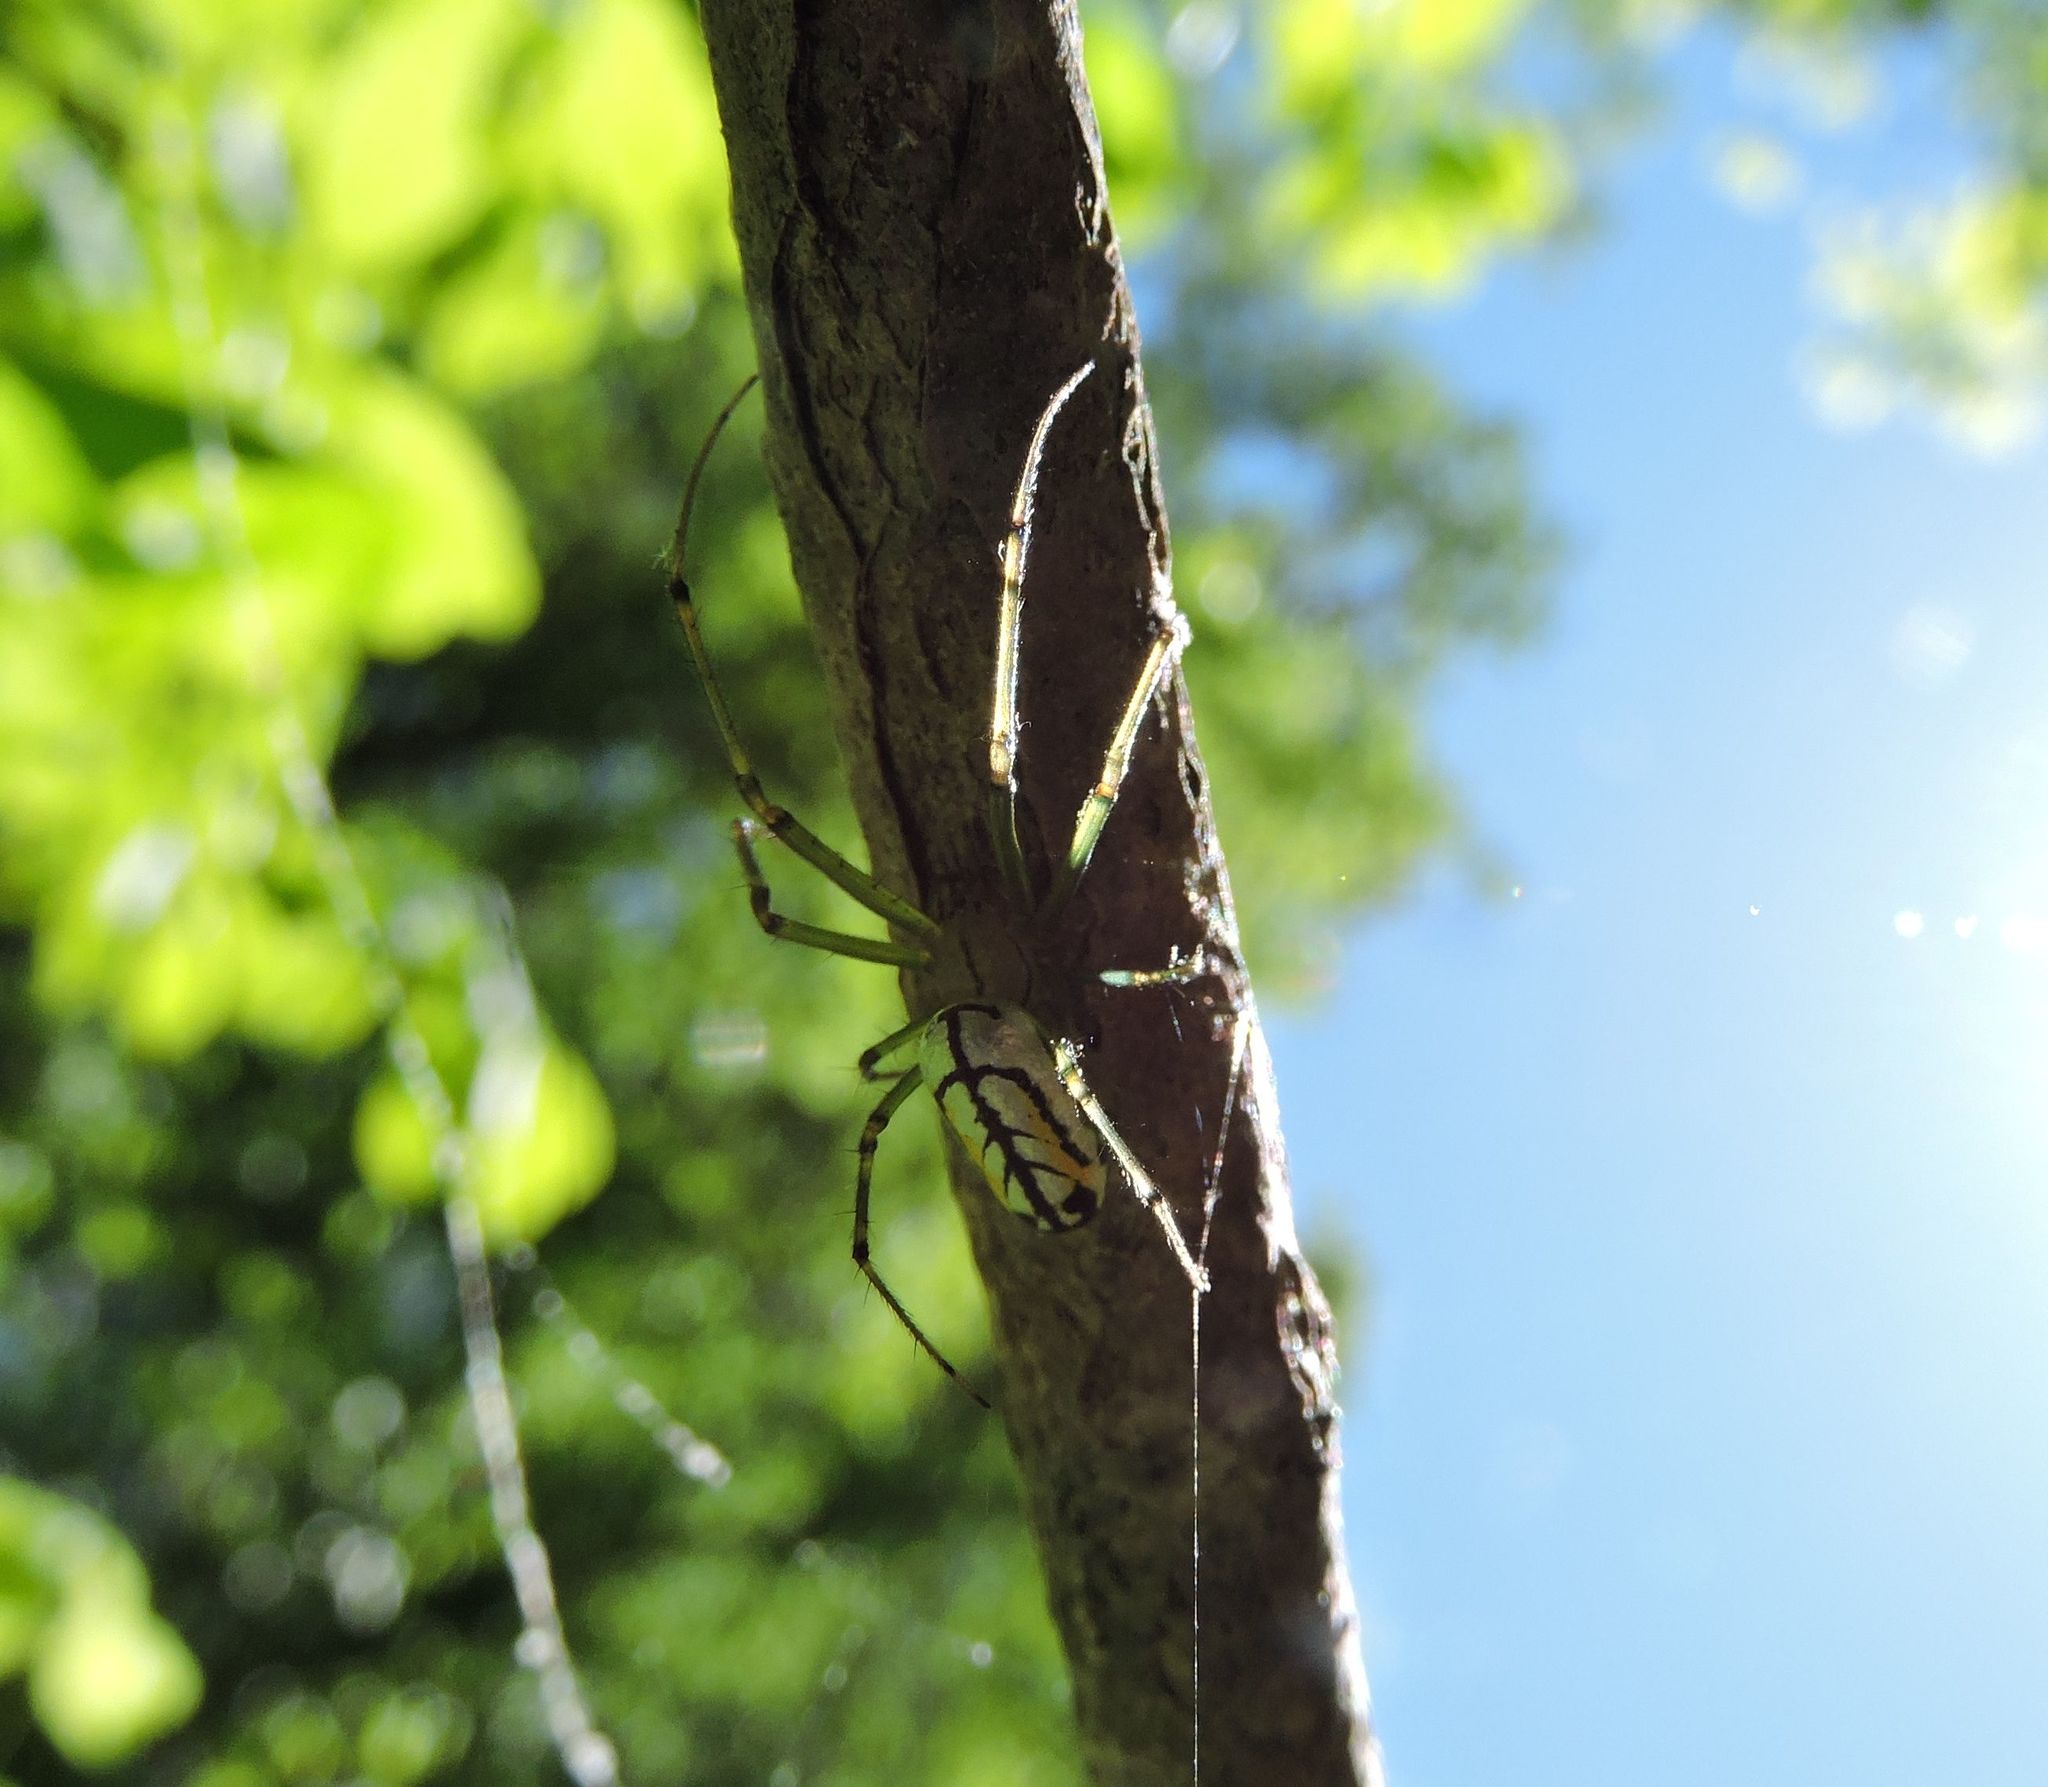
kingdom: Animalia
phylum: Arthropoda
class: Arachnida
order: Araneae
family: Tetragnathidae
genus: Leucauge
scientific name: Leucauge venusta
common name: Longjawed orb weavers
